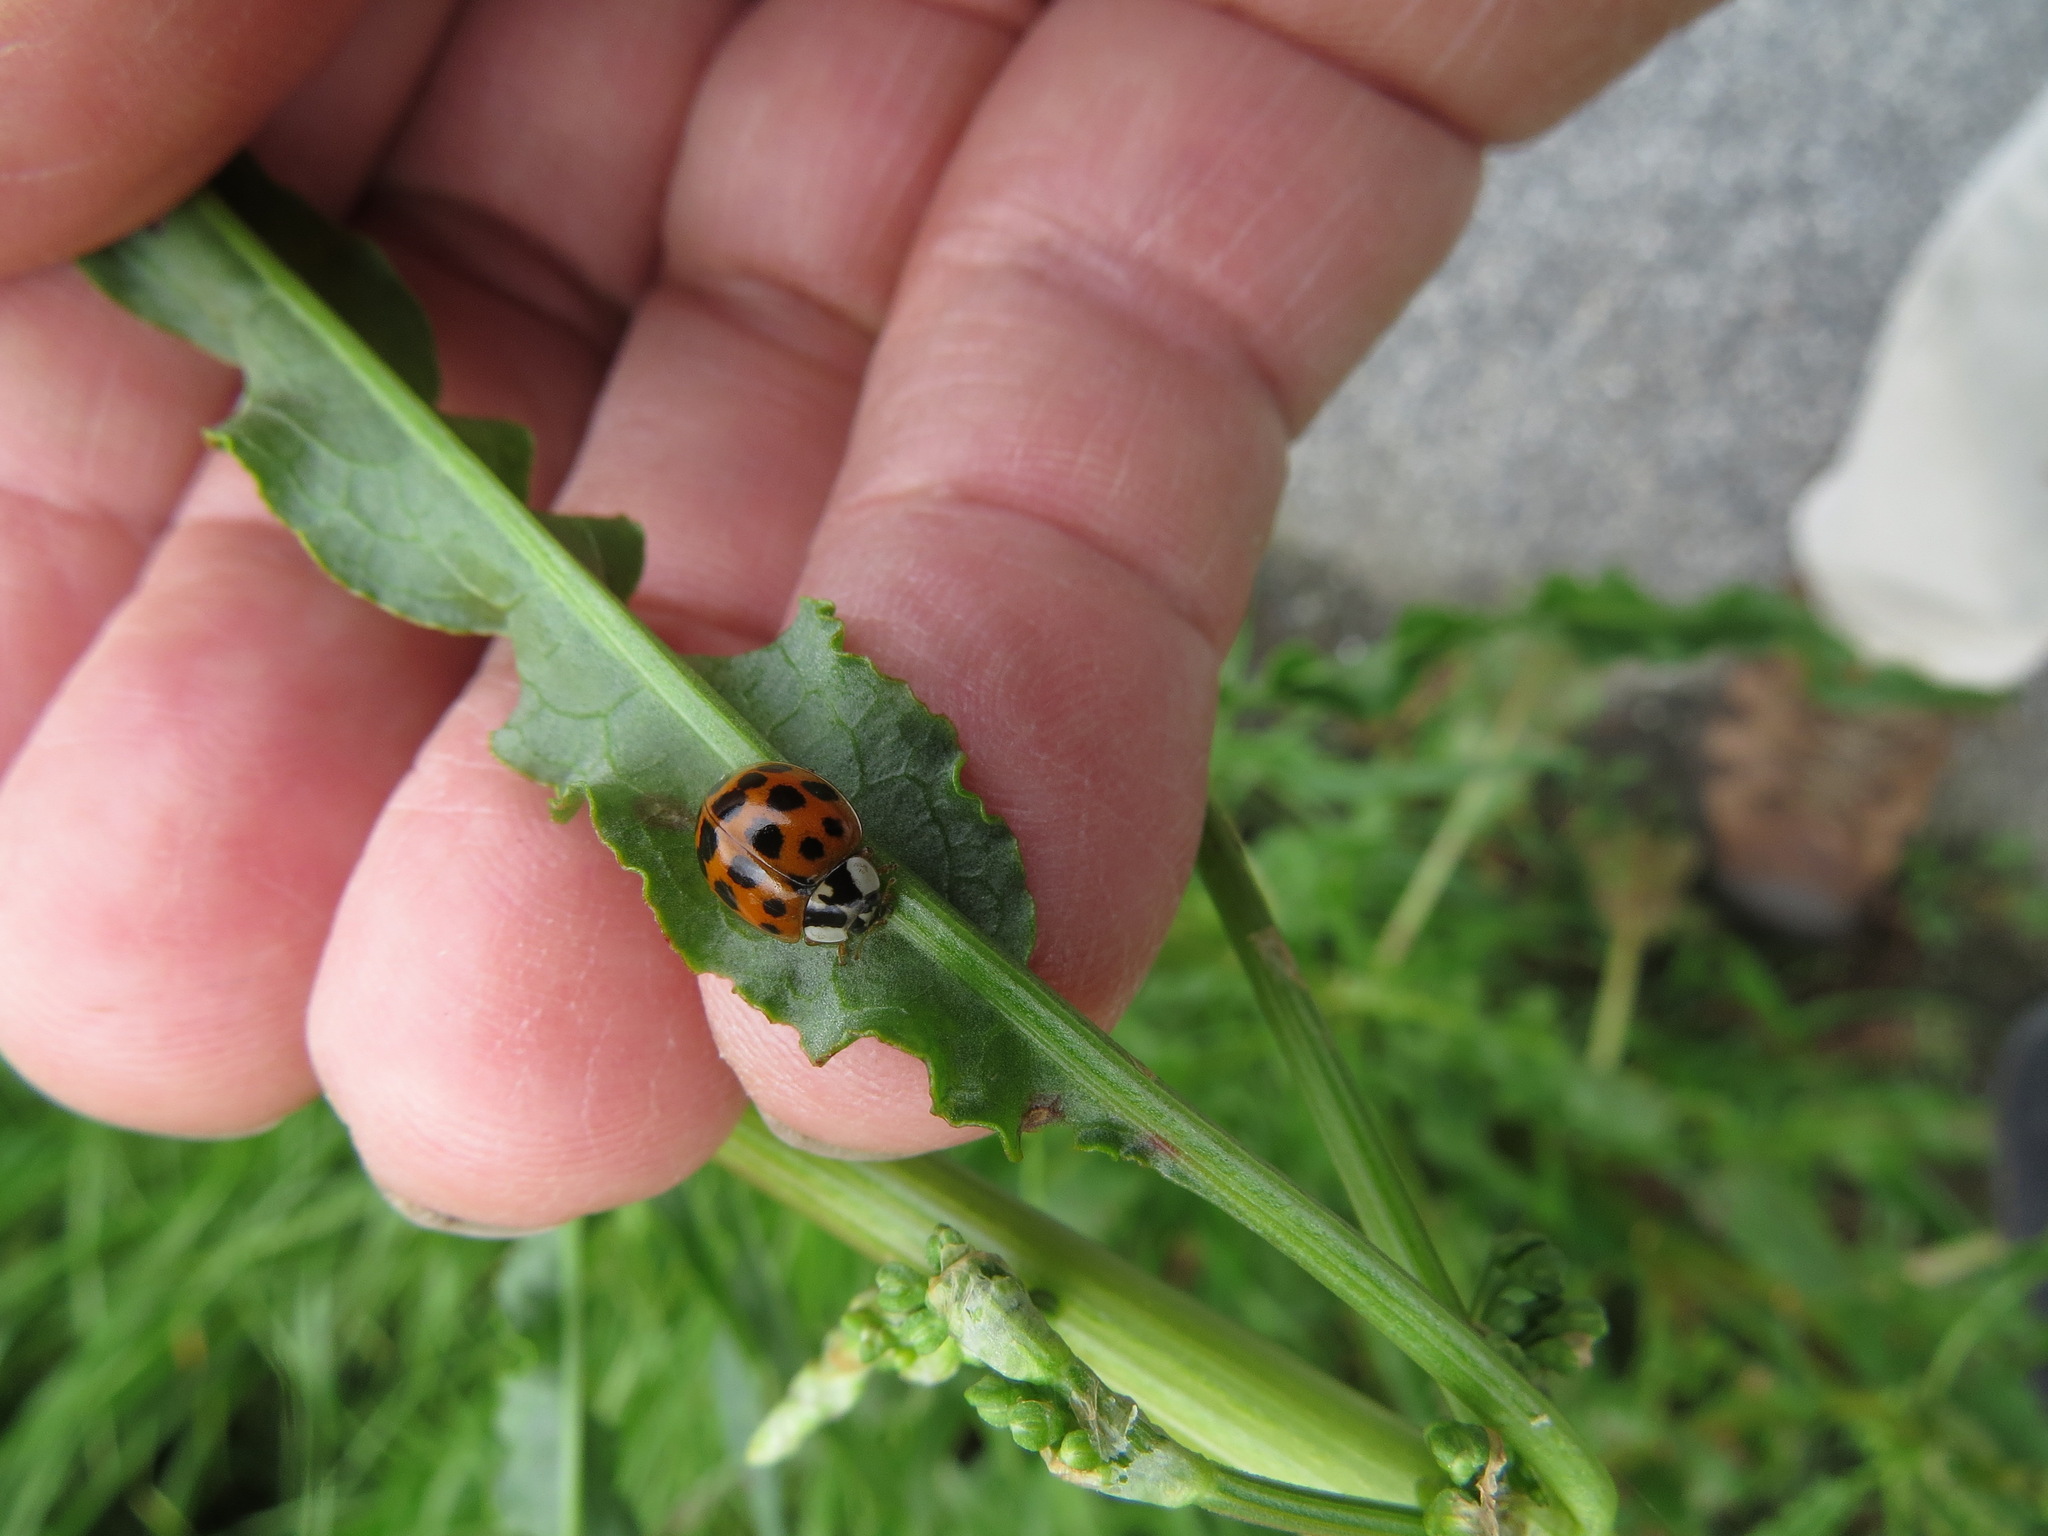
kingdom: Animalia
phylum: Arthropoda
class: Insecta
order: Coleoptera
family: Coccinellidae
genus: Harmonia
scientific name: Harmonia axyridis
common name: Harlequin ladybird
